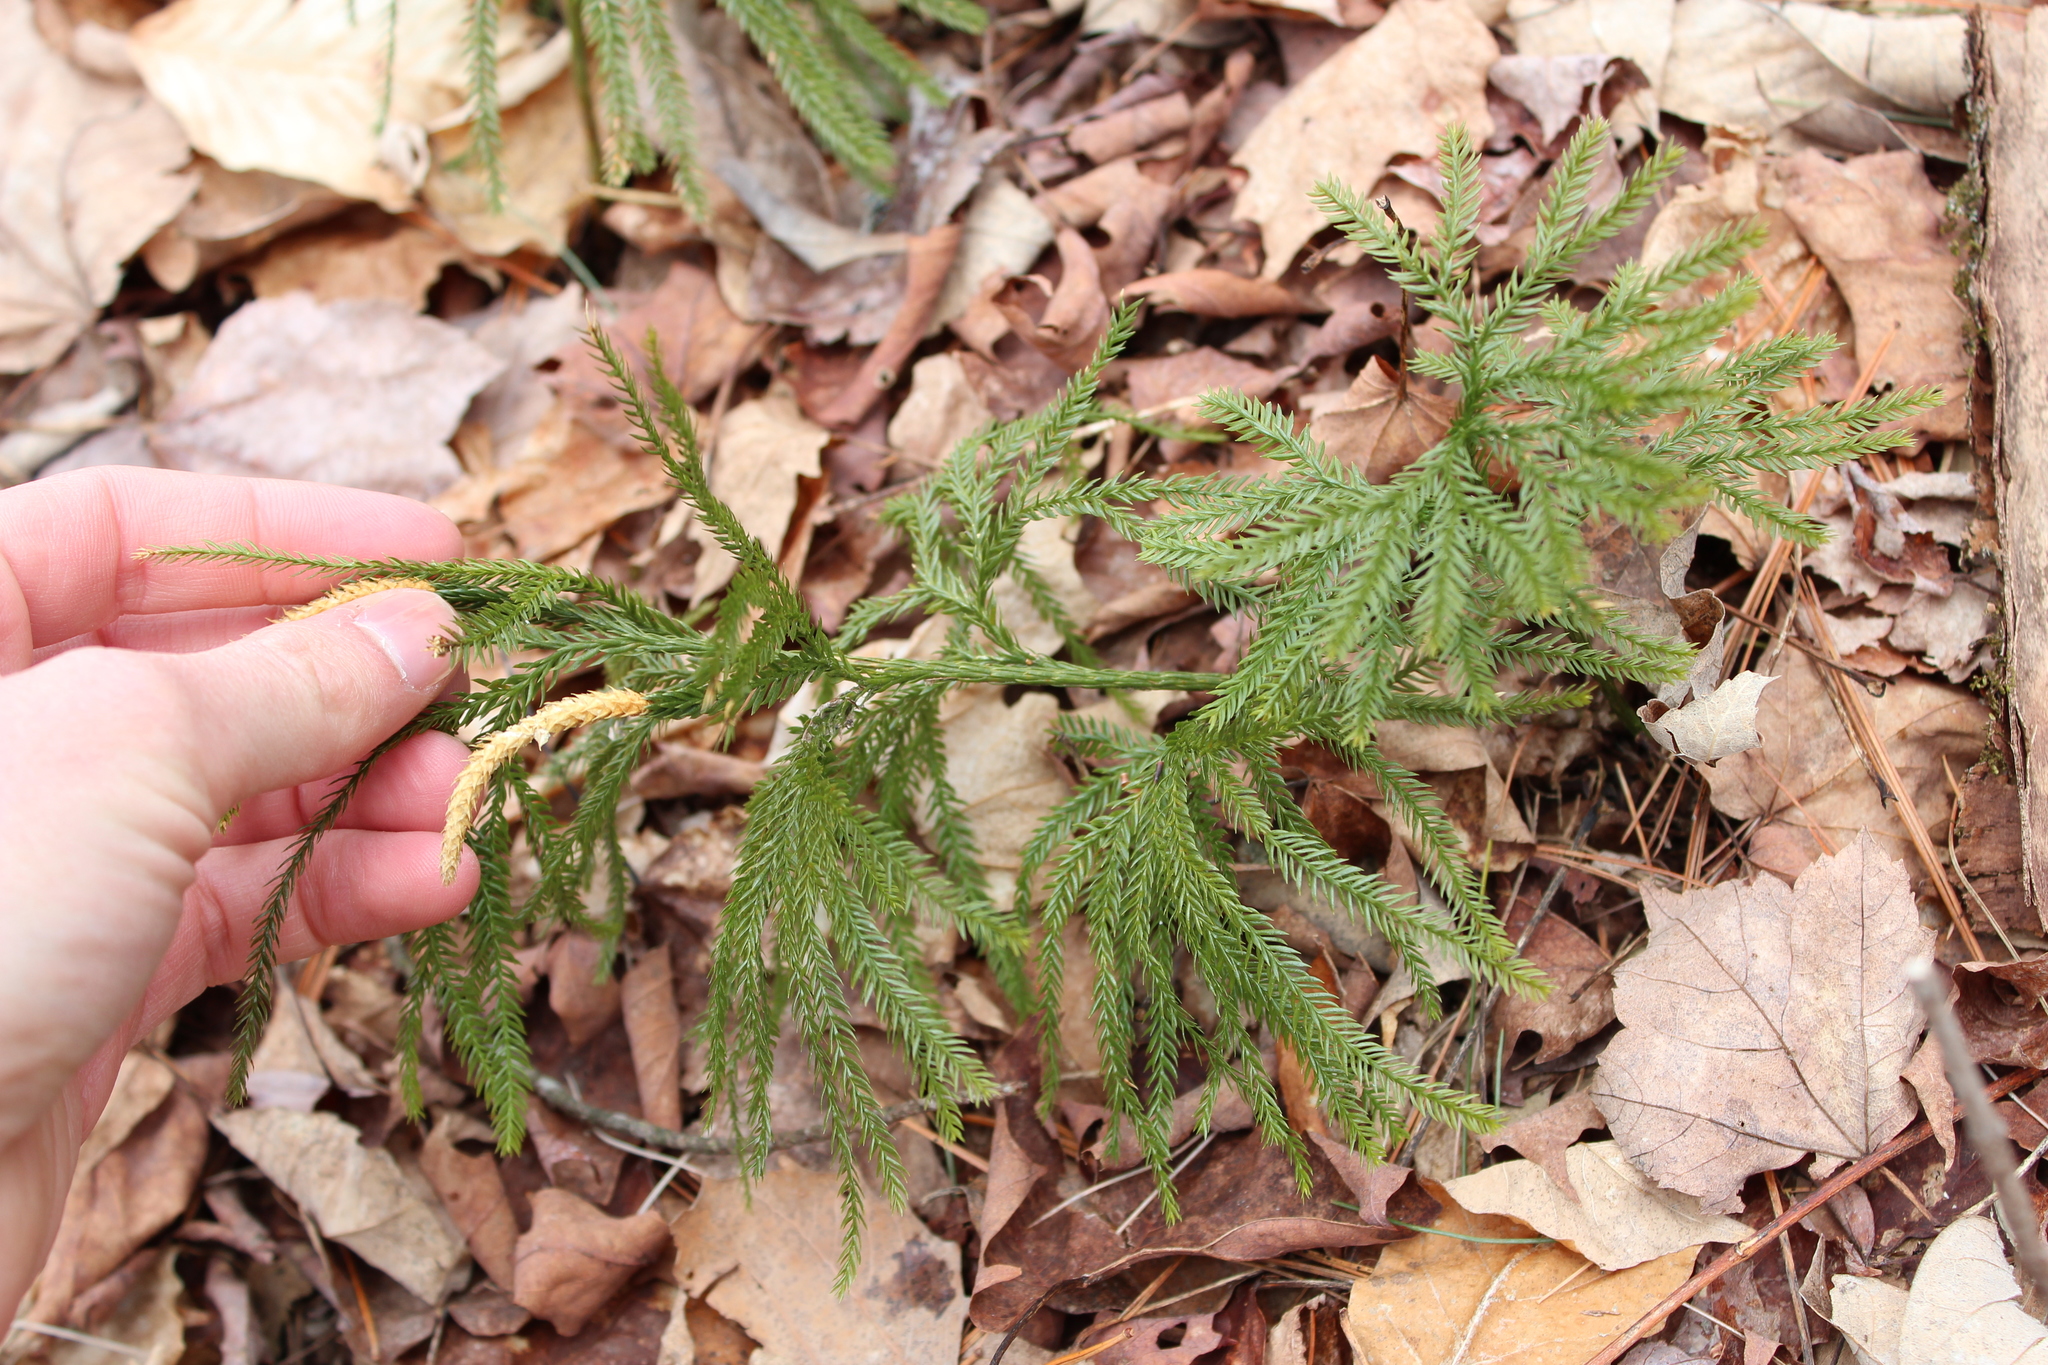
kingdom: Plantae
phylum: Tracheophyta
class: Lycopodiopsida
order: Lycopodiales
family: Lycopodiaceae
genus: Dendrolycopodium
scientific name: Dendrolycopodium obscurum
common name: Common ground-pine
